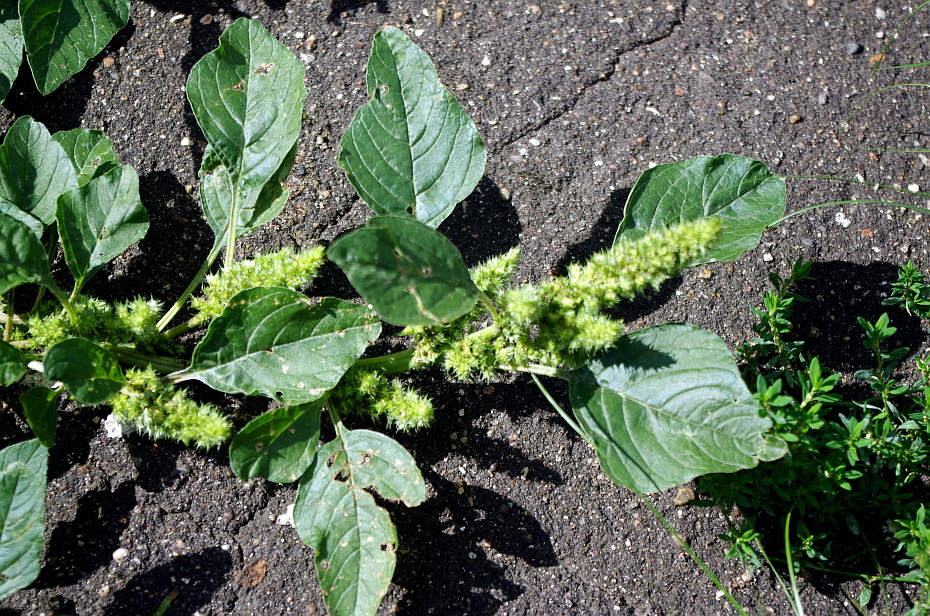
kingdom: Plantae
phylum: Tracheophyta
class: Magnoliopsida
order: Caryophyllales
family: Amaranthaceae
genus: Amaranthus
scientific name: Amaranthus retroflexus
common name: Redroot amaranth
